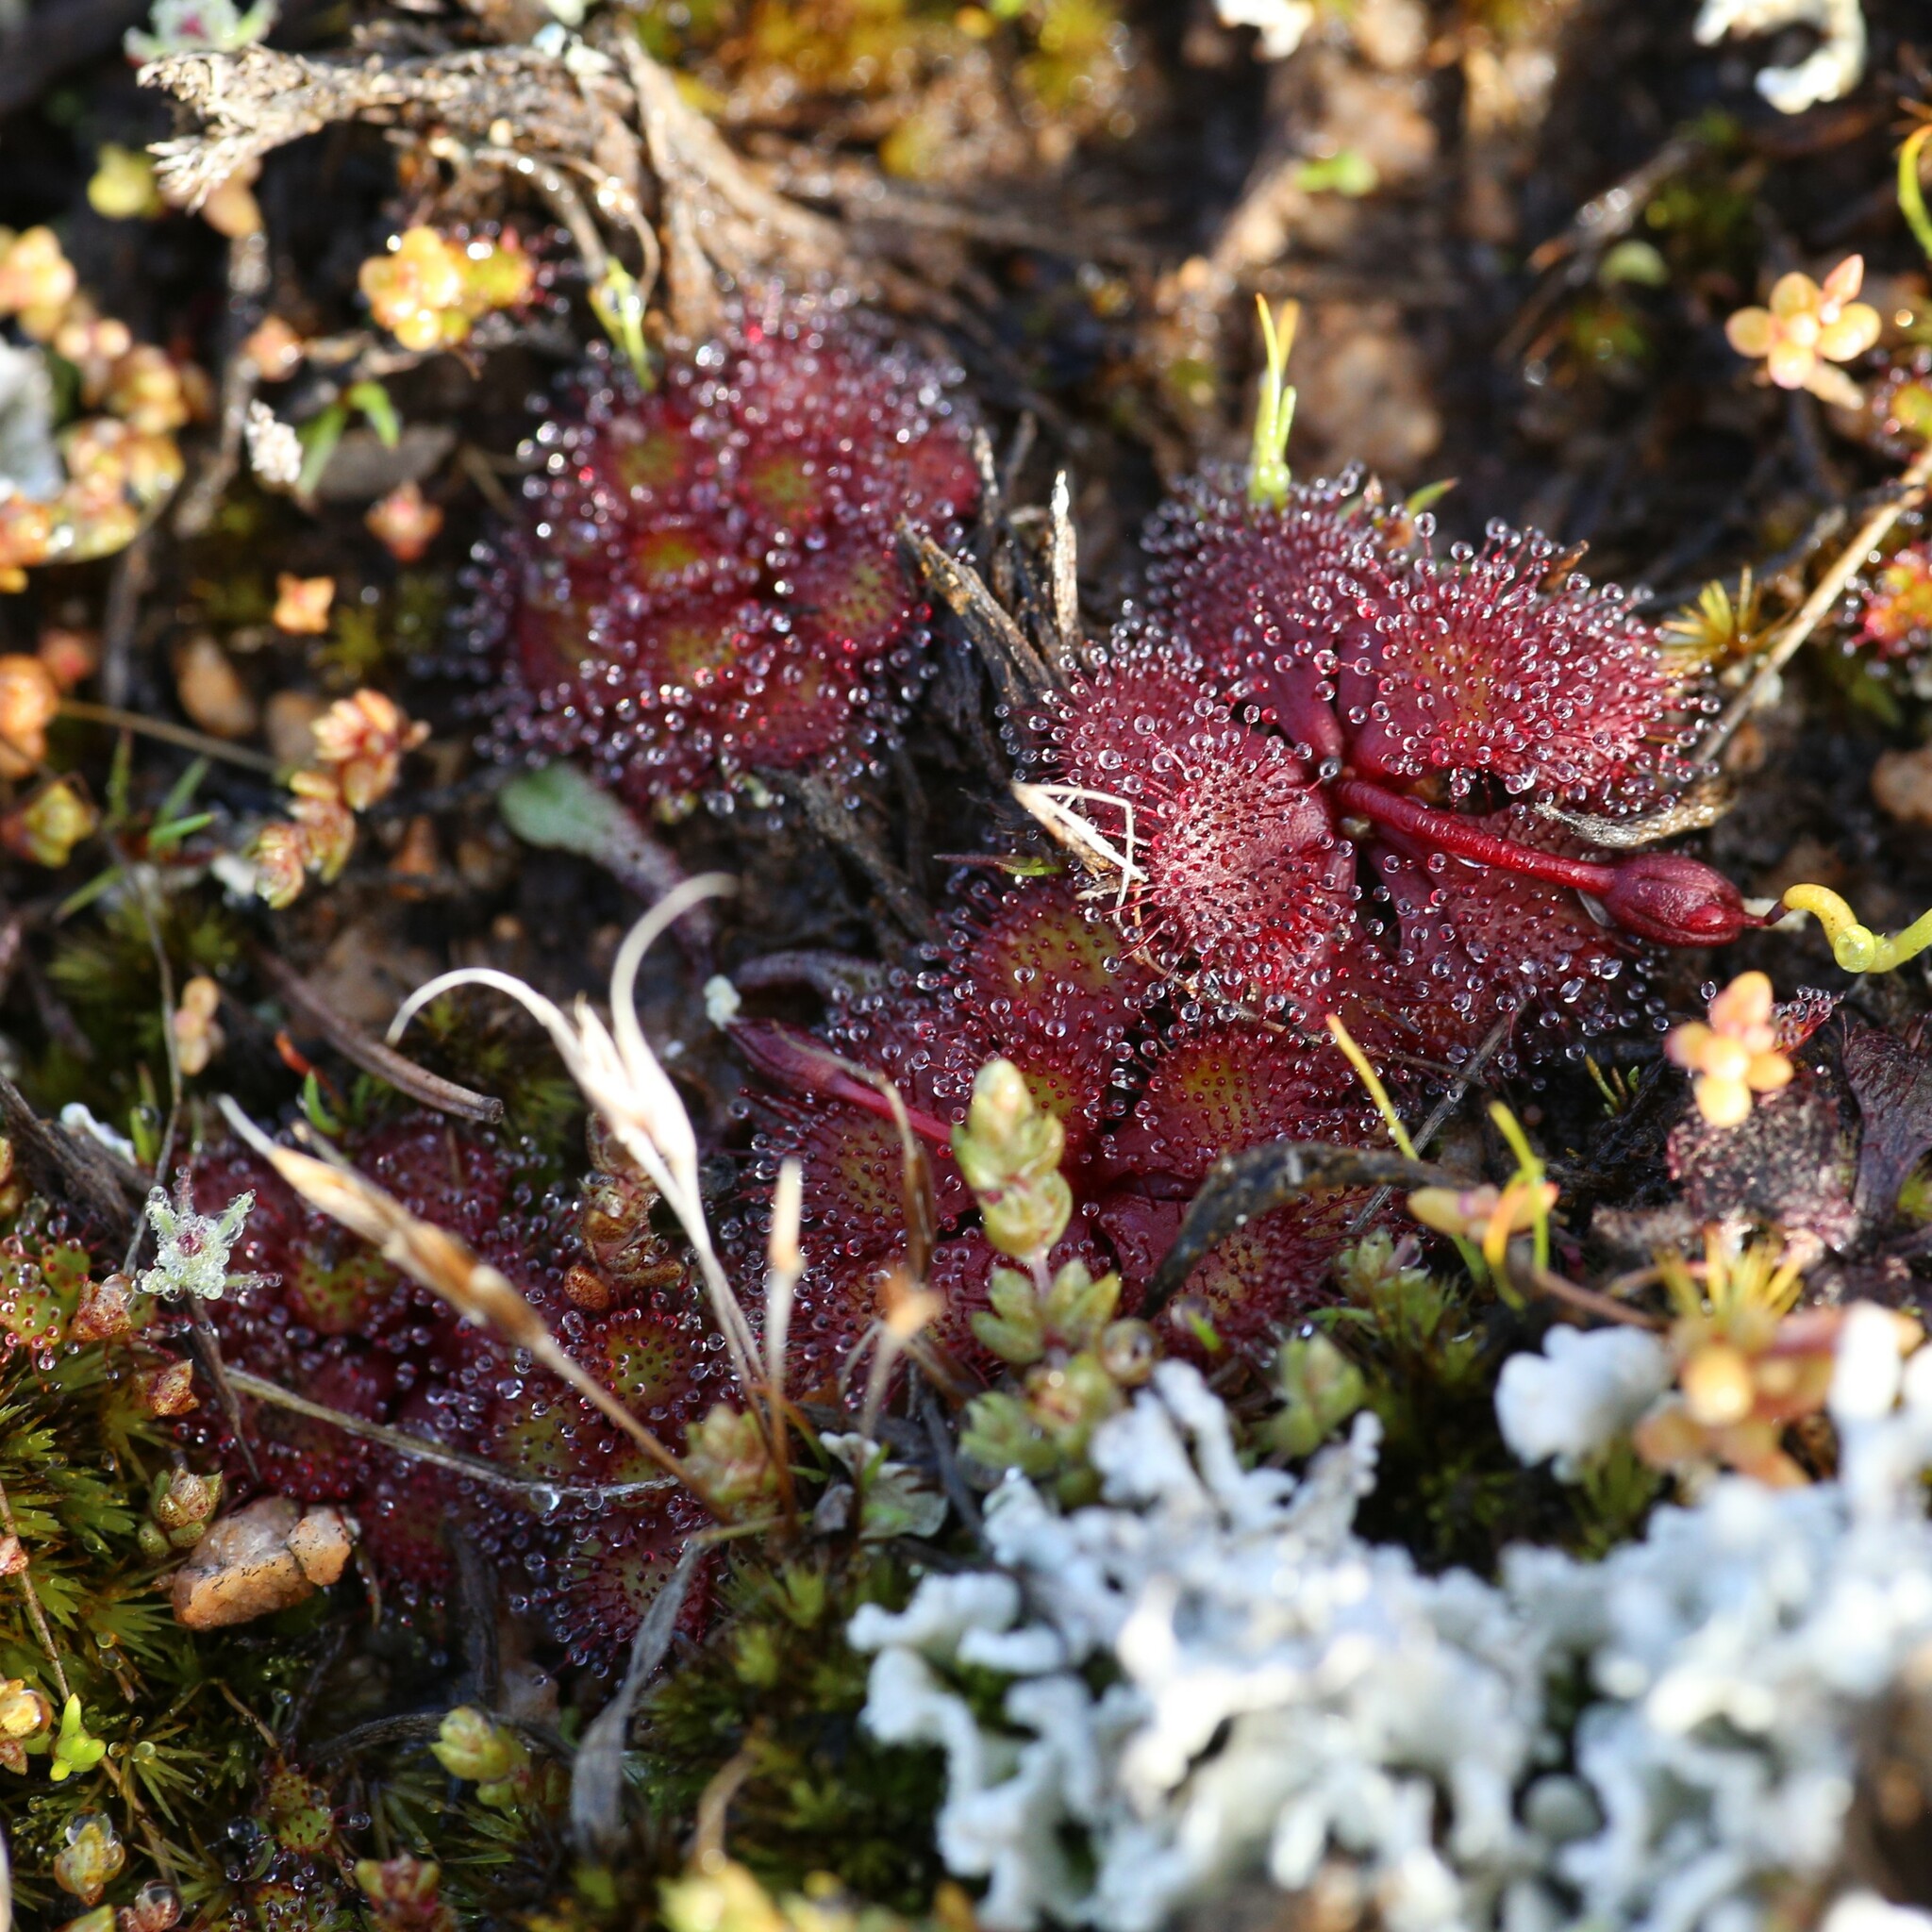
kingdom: Plantae
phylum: Tracheophyta
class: Magnoliopsida
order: Caryophyllales
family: Droseraceae
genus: Drosera
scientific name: Drosera lowriei
